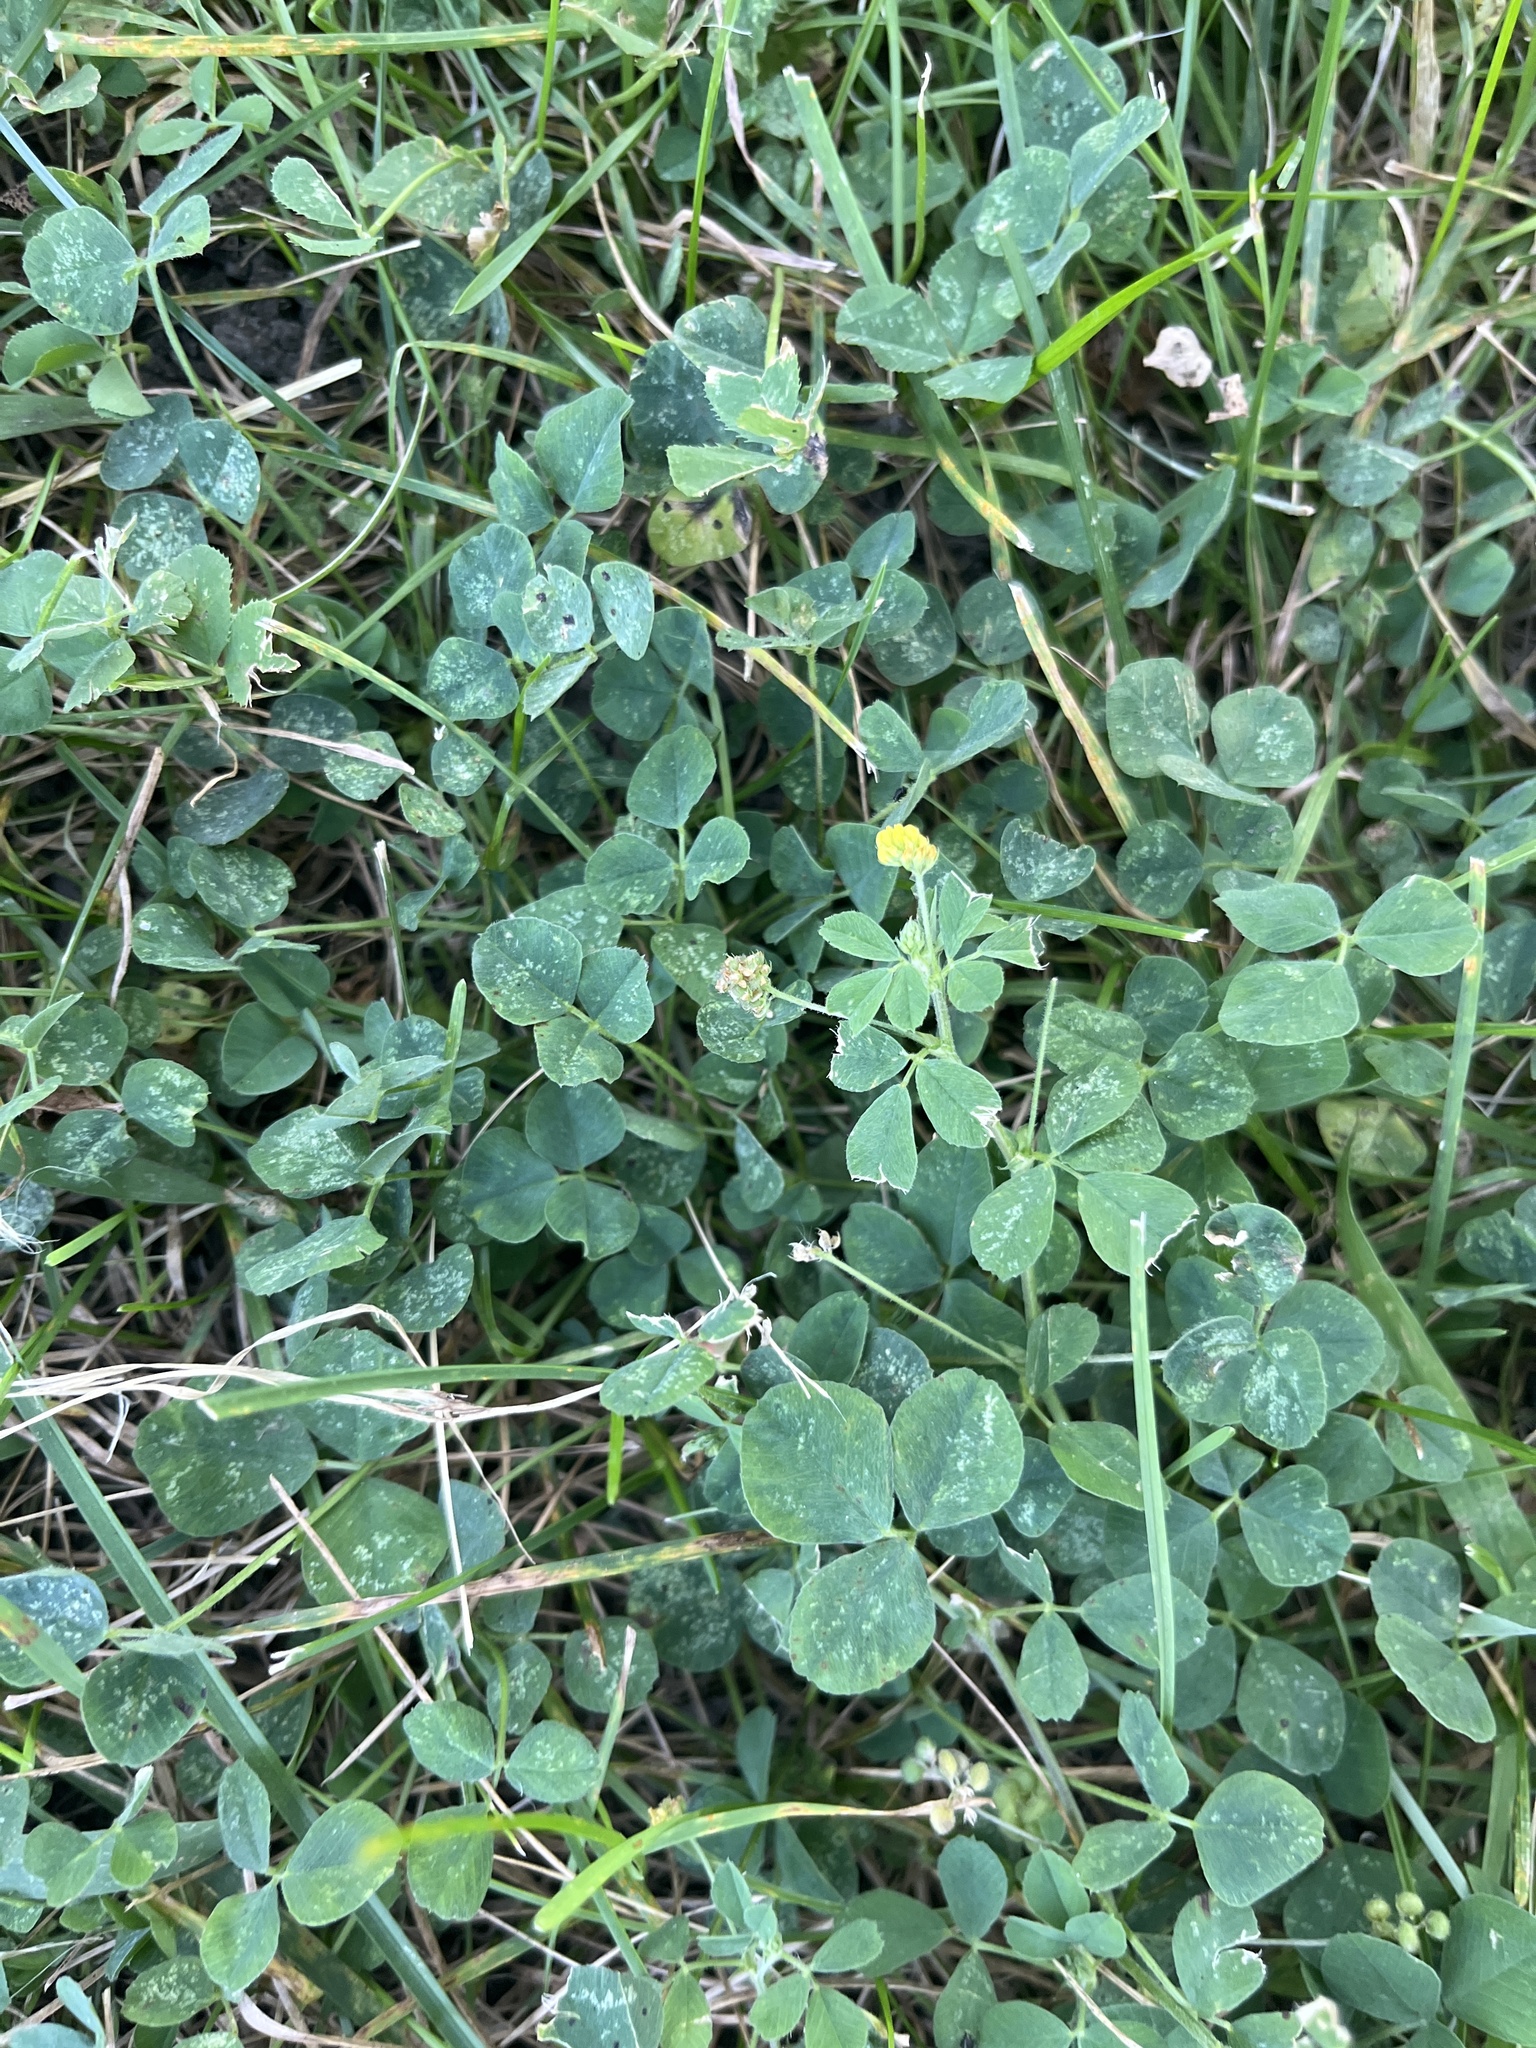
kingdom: Plantae
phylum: Tracheophyta
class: Magnoliopsida
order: Fabales
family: Fabaceae
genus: Medicago
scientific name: Medicago lupulina
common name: Black medick
